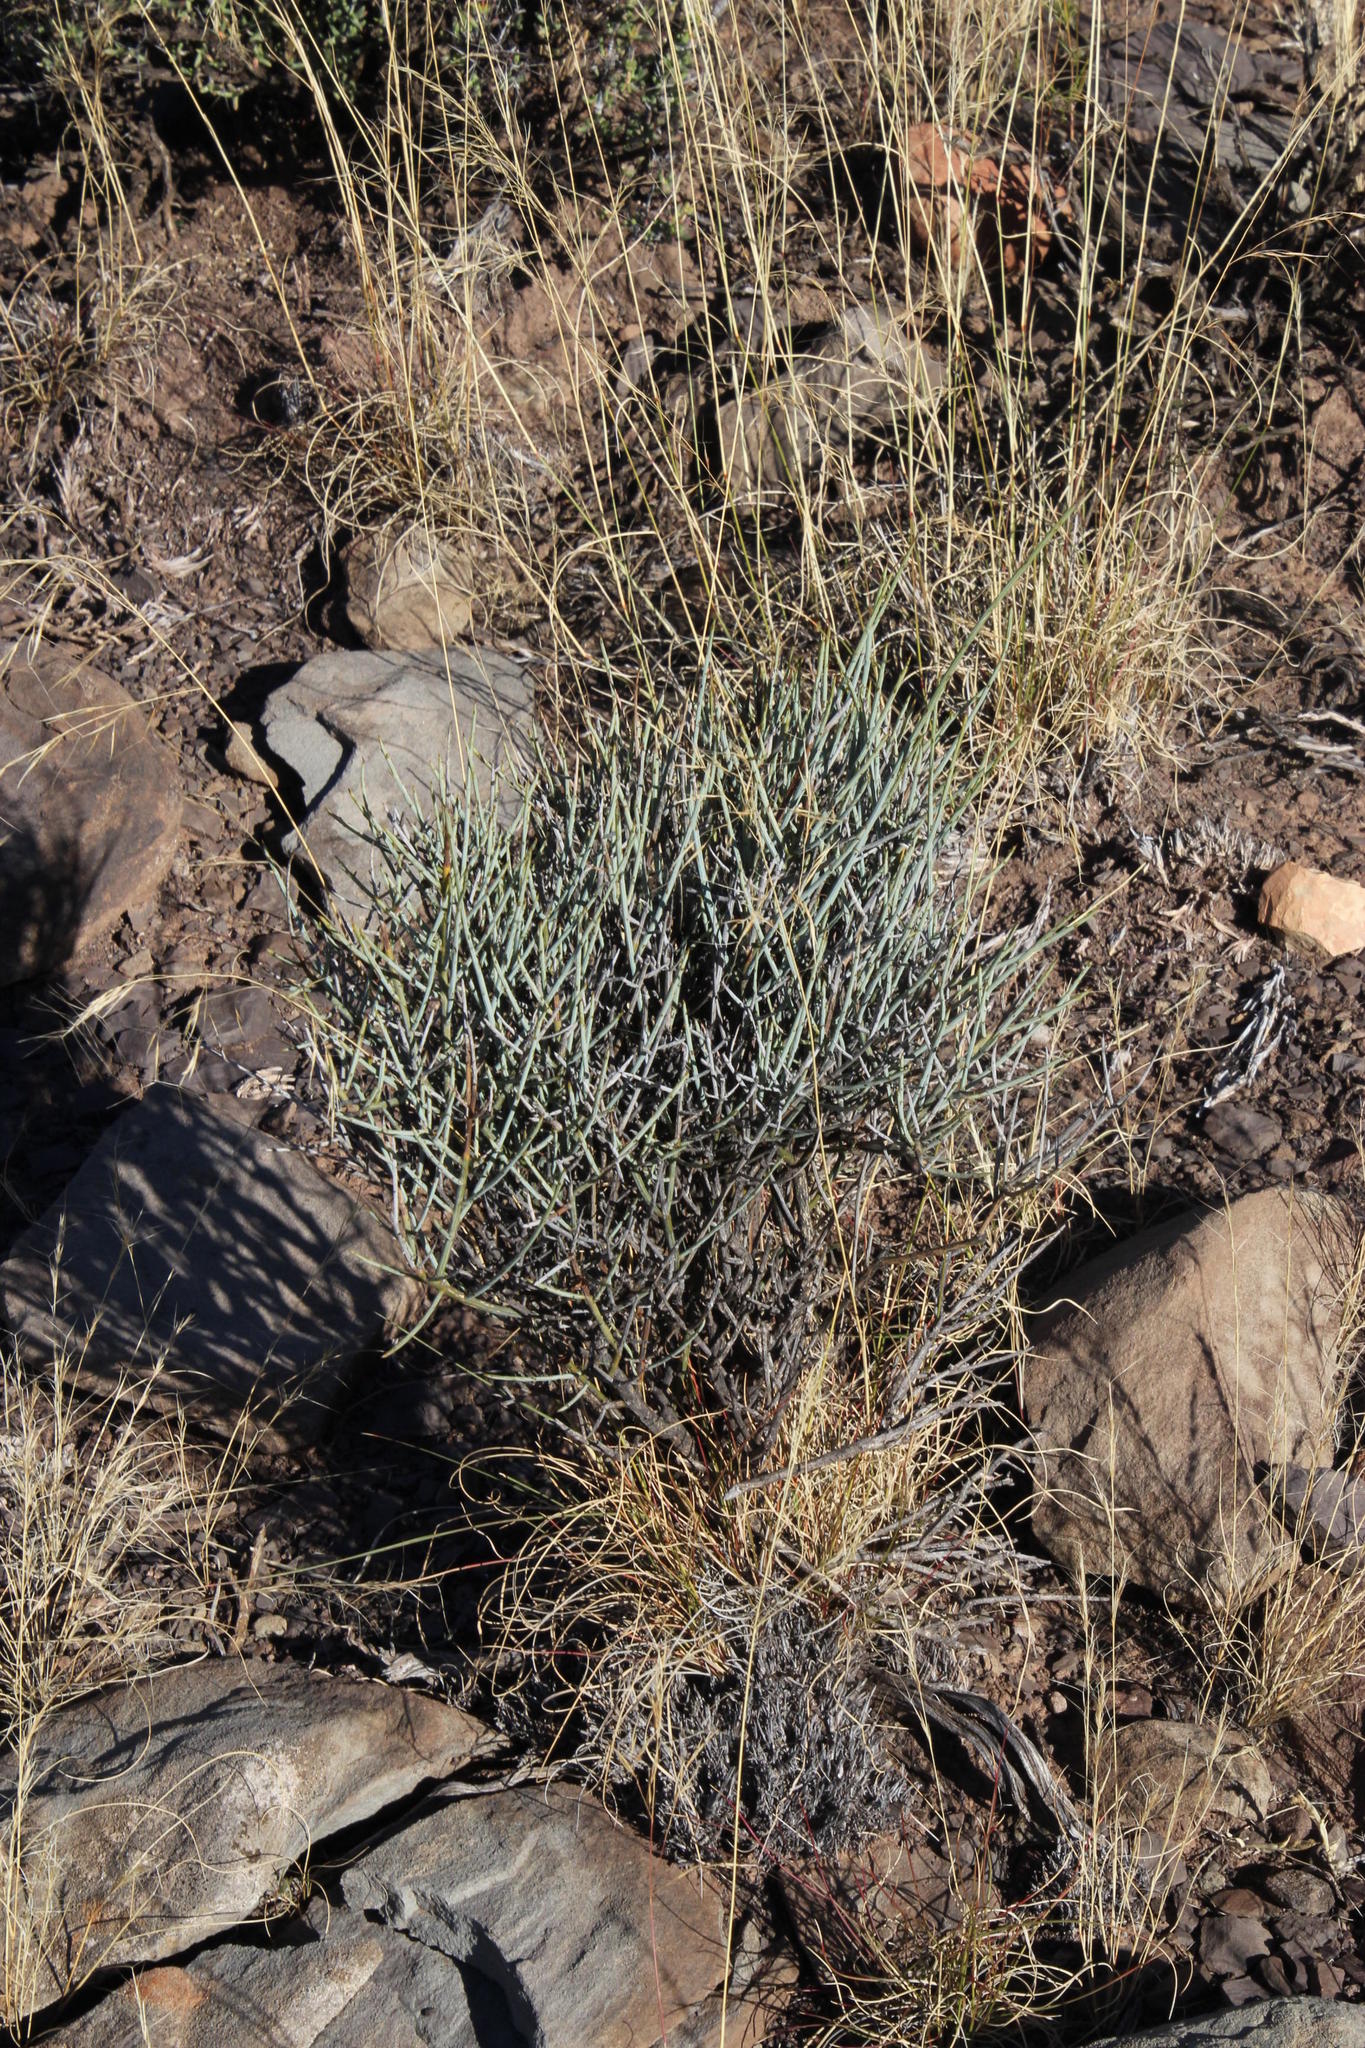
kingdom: Plantae
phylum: Tracheophyta
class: Magnoliopsida
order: Santalales
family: Thesiaceae
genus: Lacomucinaea
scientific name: Lacomucinaea lineata
